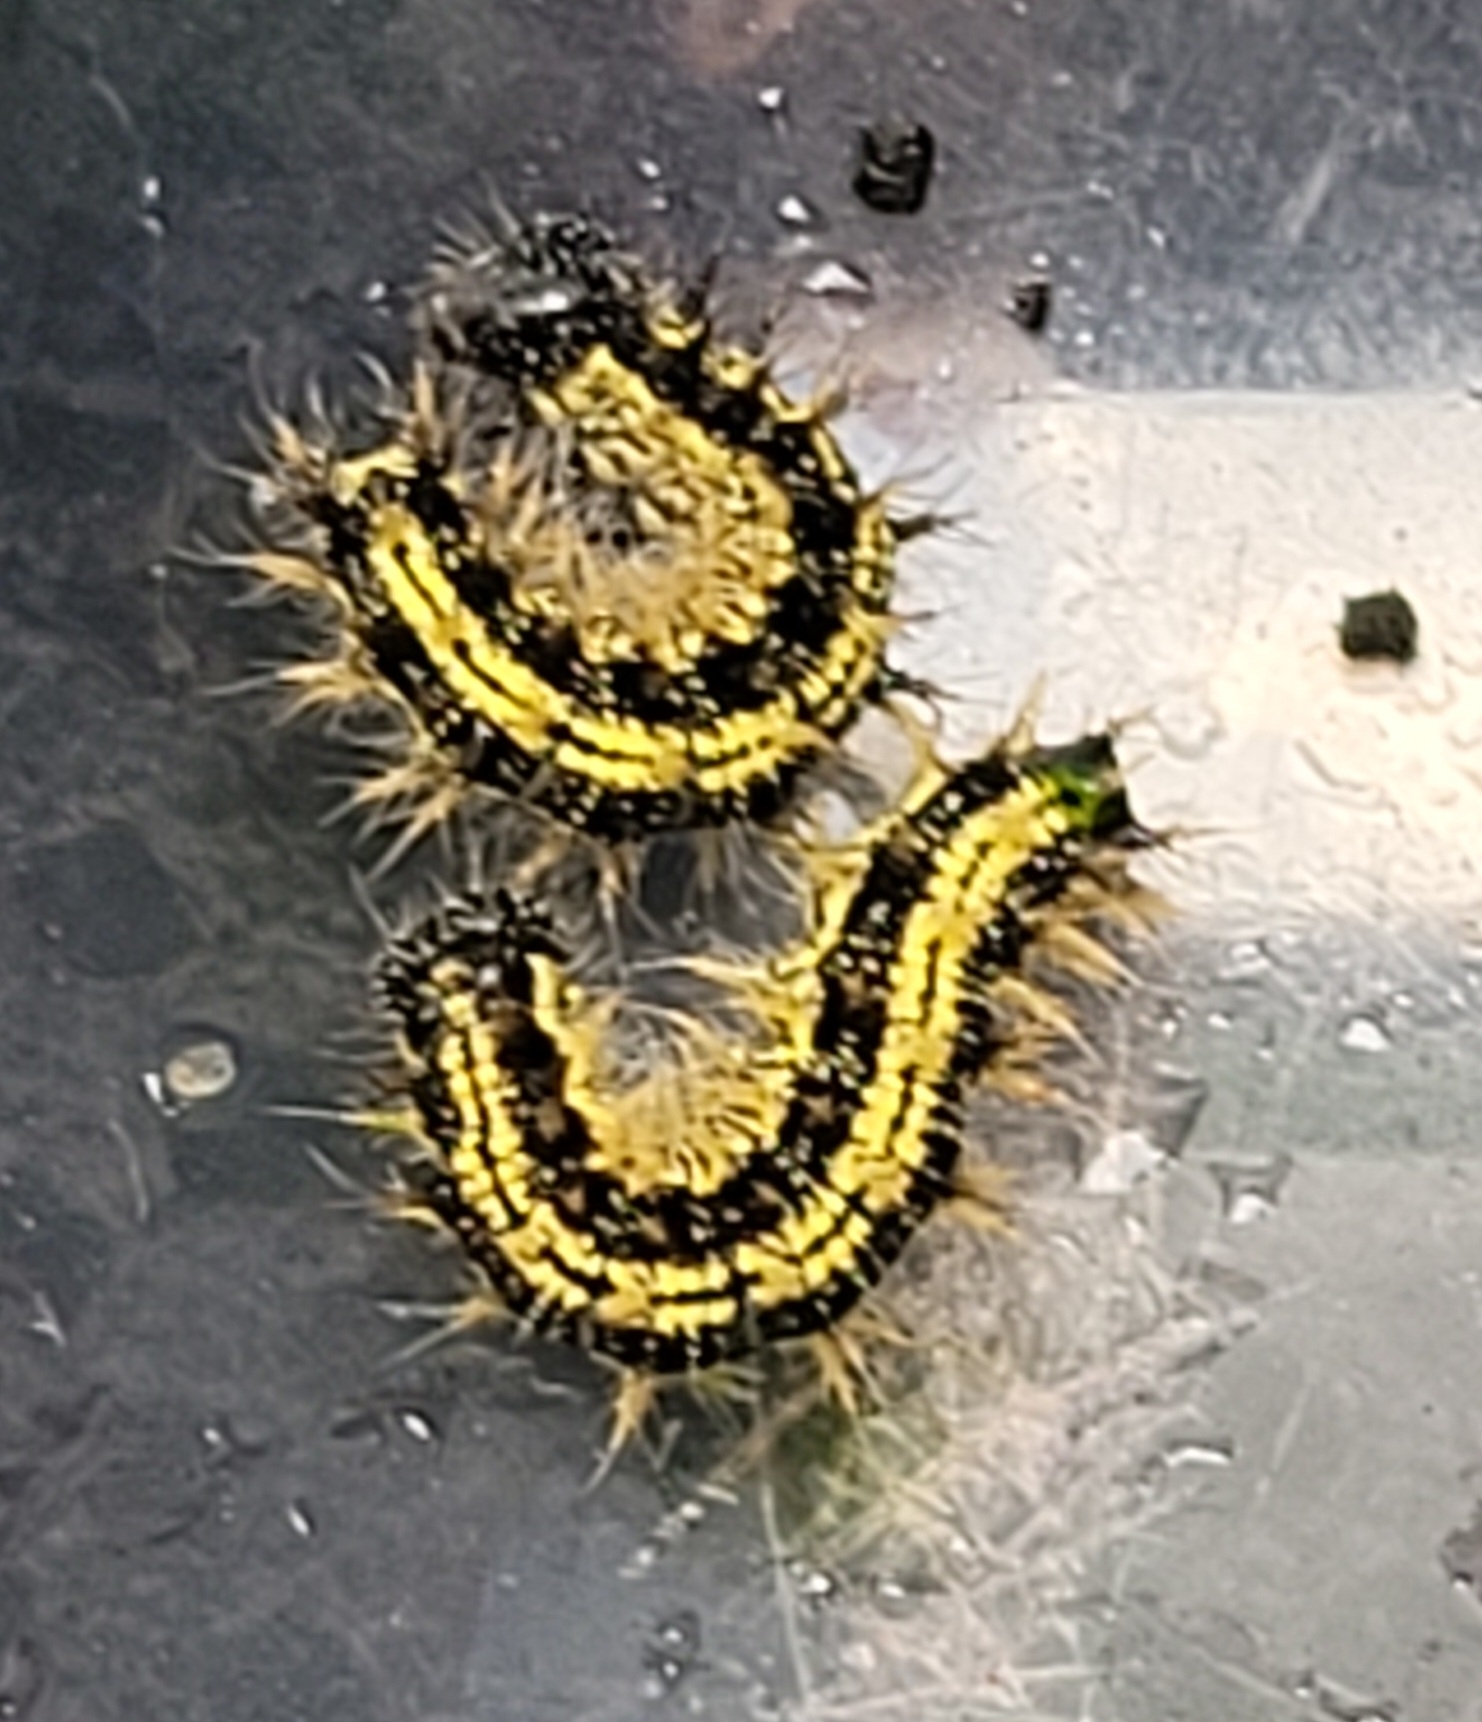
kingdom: Animalia
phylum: Arthropoda
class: Insecta
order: Lepidoptera
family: Nymphalidae
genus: Aglais
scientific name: Aglais urticae
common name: Small tortoiseshell
